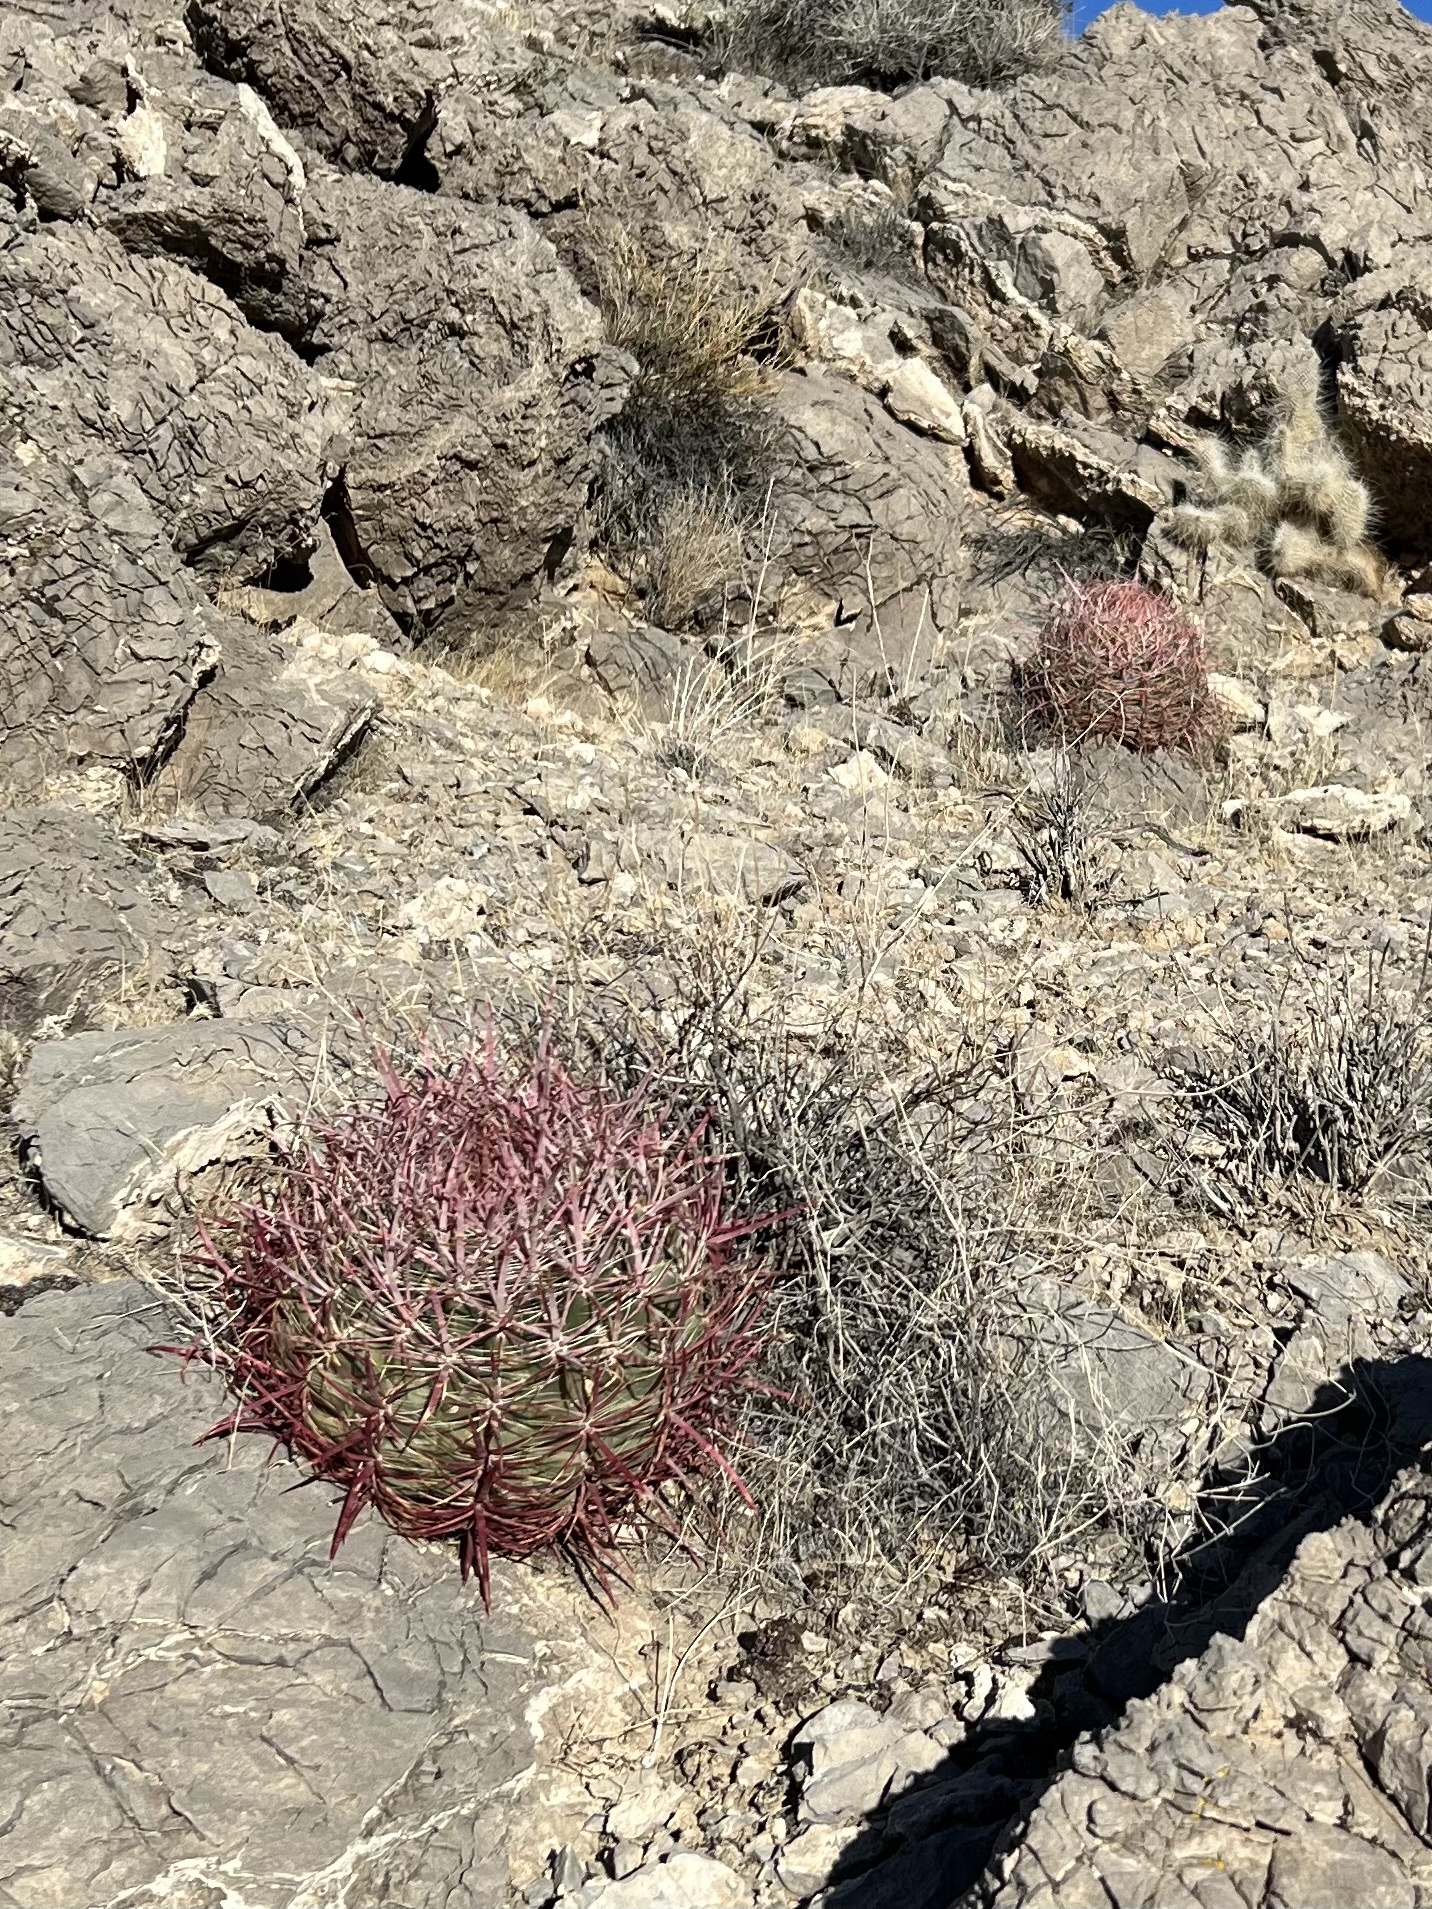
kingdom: Plantae
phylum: Tracheophyta
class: Magnoliopsida
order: Caryophyllales
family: Cactaceae
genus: Ferocactus
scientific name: Ferocactus cylindraceus
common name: California barrel cactus
